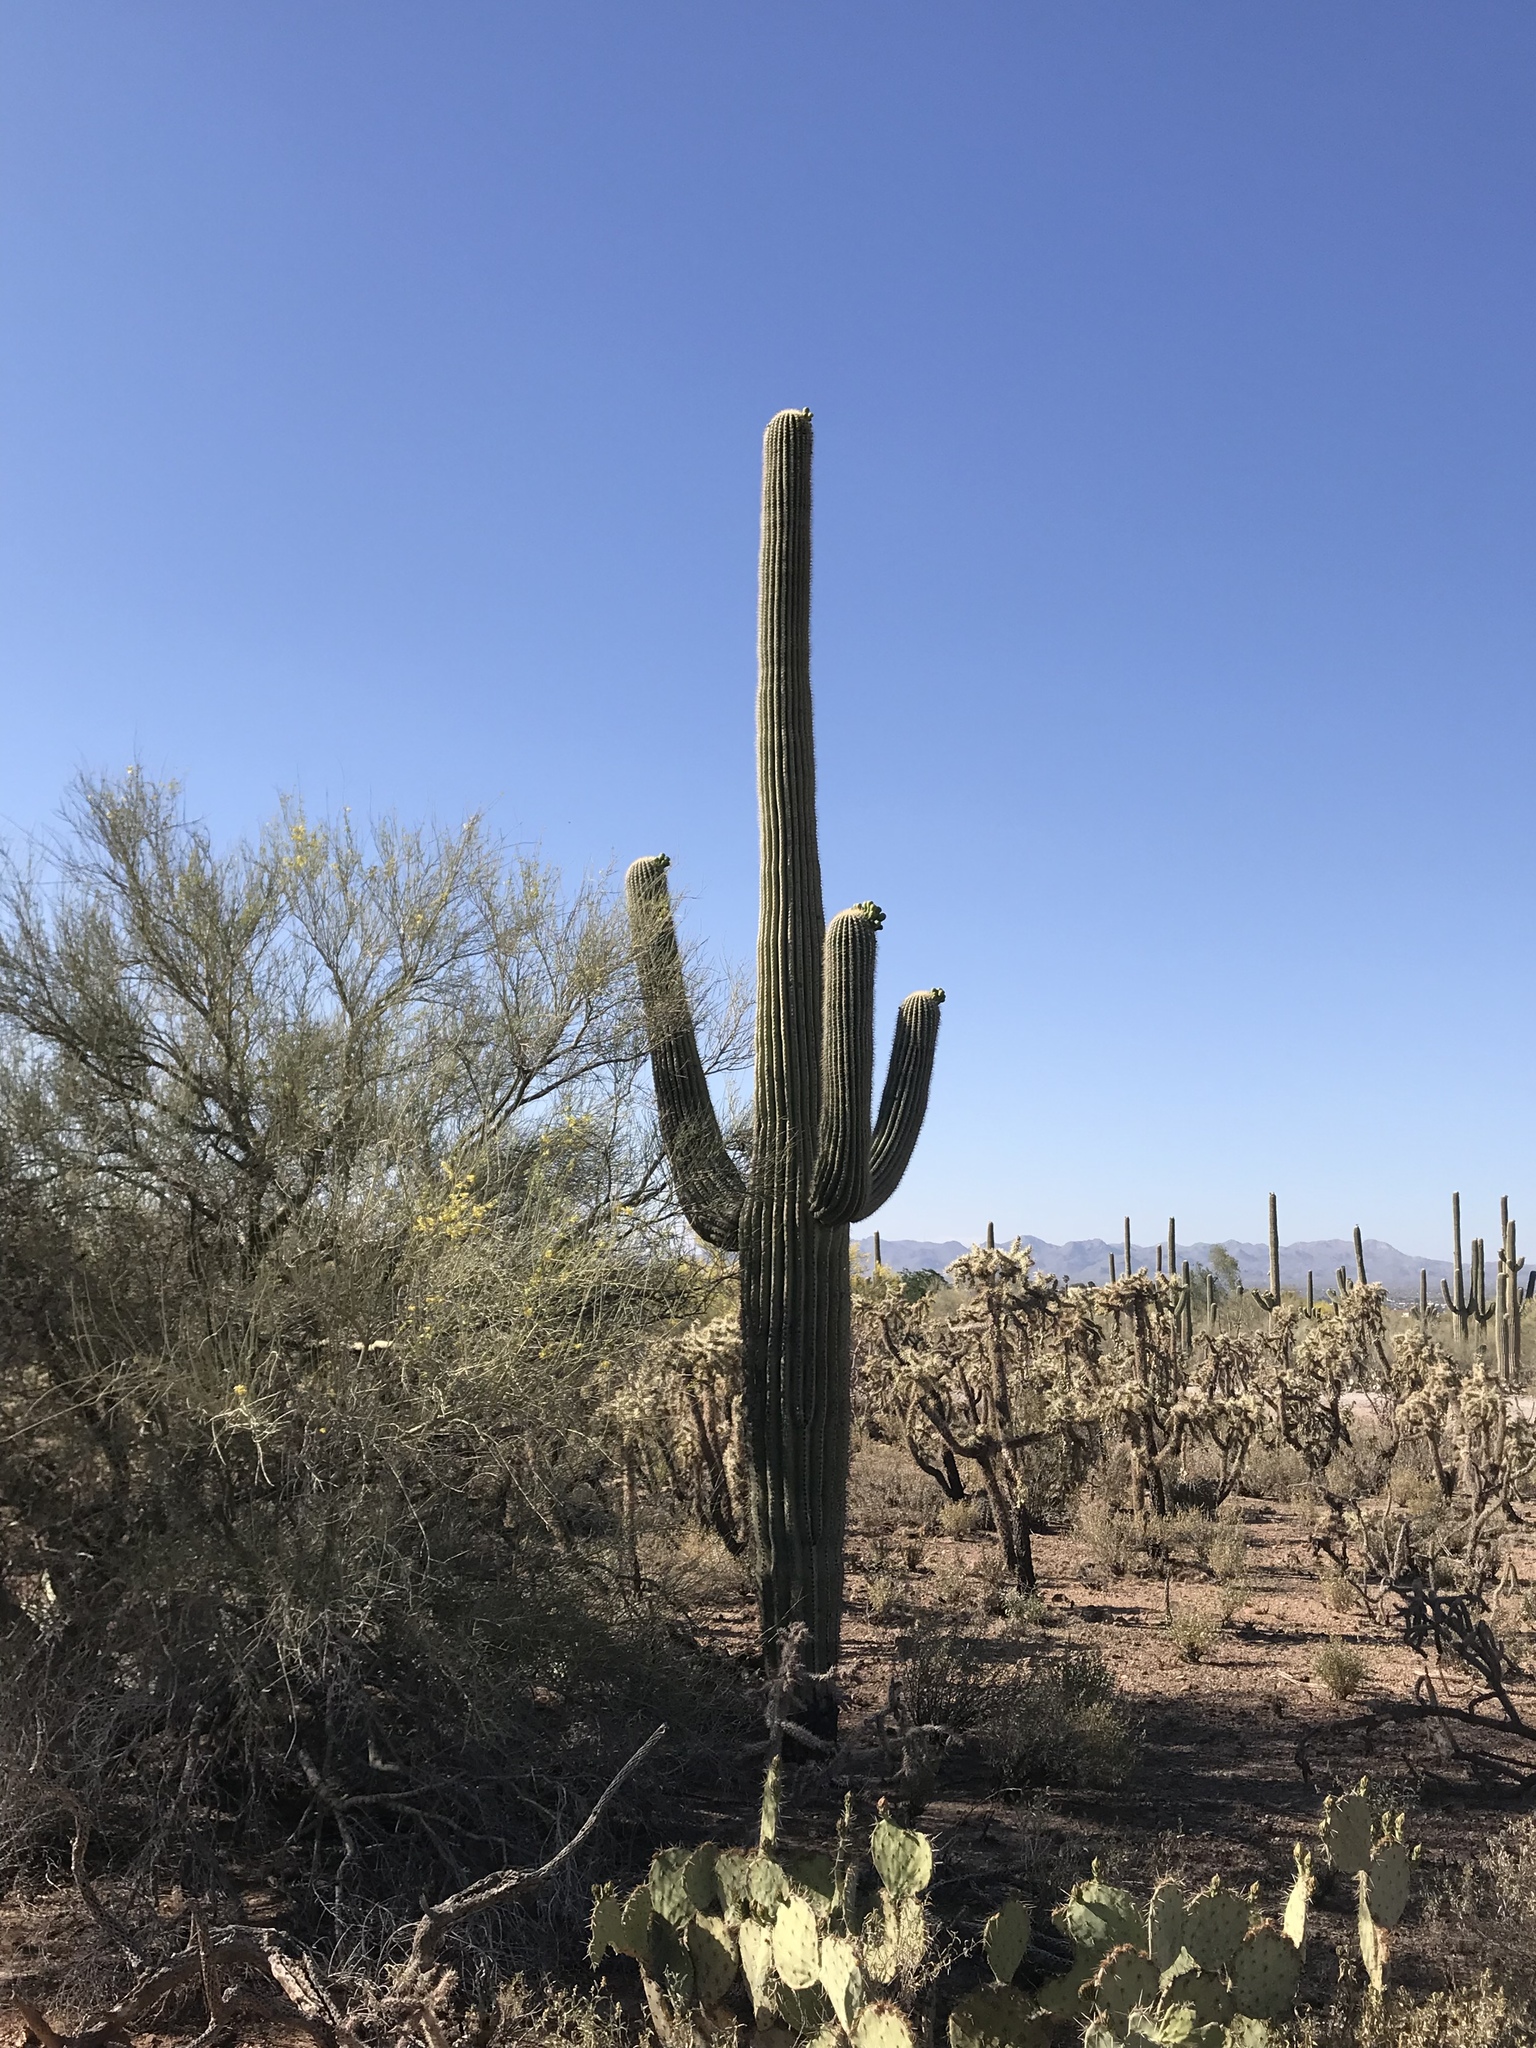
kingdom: Plantae
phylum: Tracheophyta
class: Magnoliopsida
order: Caryophyllales
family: Cactaceae
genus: Carnegiea
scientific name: Carnegiea gigantea
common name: Saguaro
